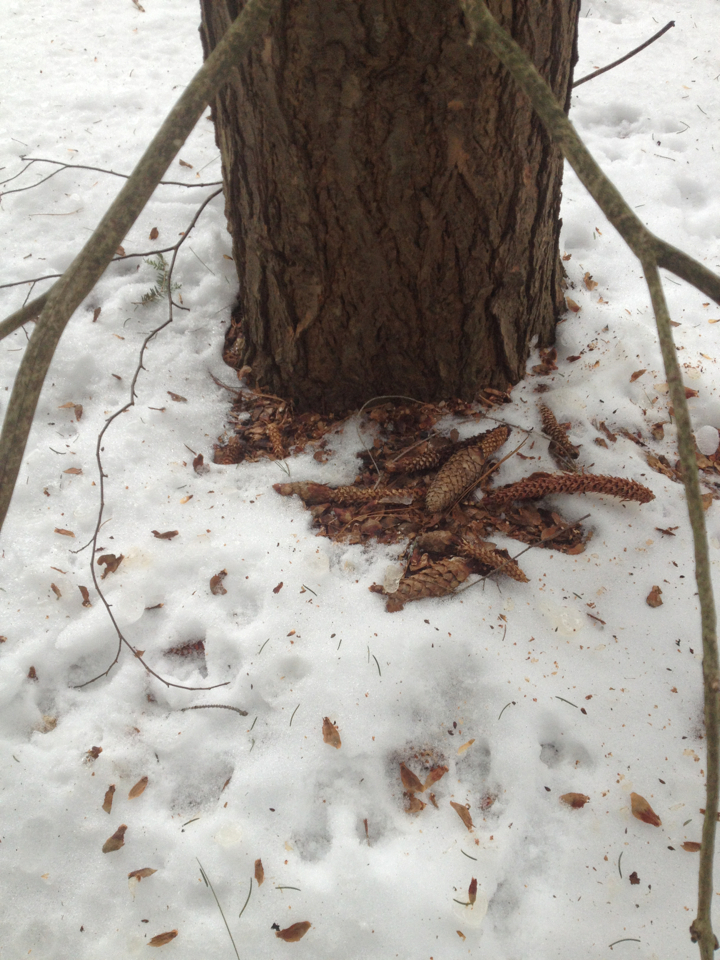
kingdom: Animalia
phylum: Chordata
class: Mammalia
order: Rodentia
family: Sciuridae
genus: Tamiasciurus
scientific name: Tamiasciurus hudsonicus
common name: Red squirrel
